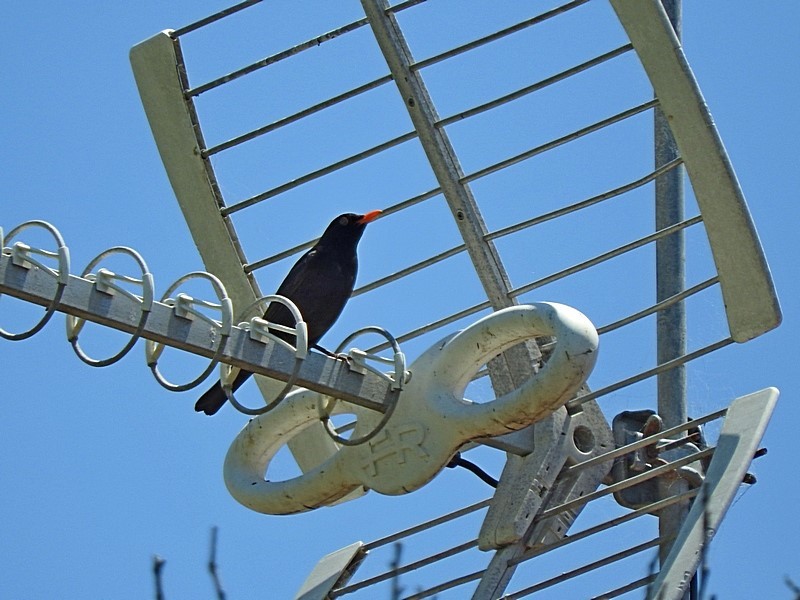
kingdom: Animalia
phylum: Chordata
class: Aves
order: Passeriformes
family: Turdidae
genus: Turdus
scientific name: Turdus merula
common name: Common blackbird
